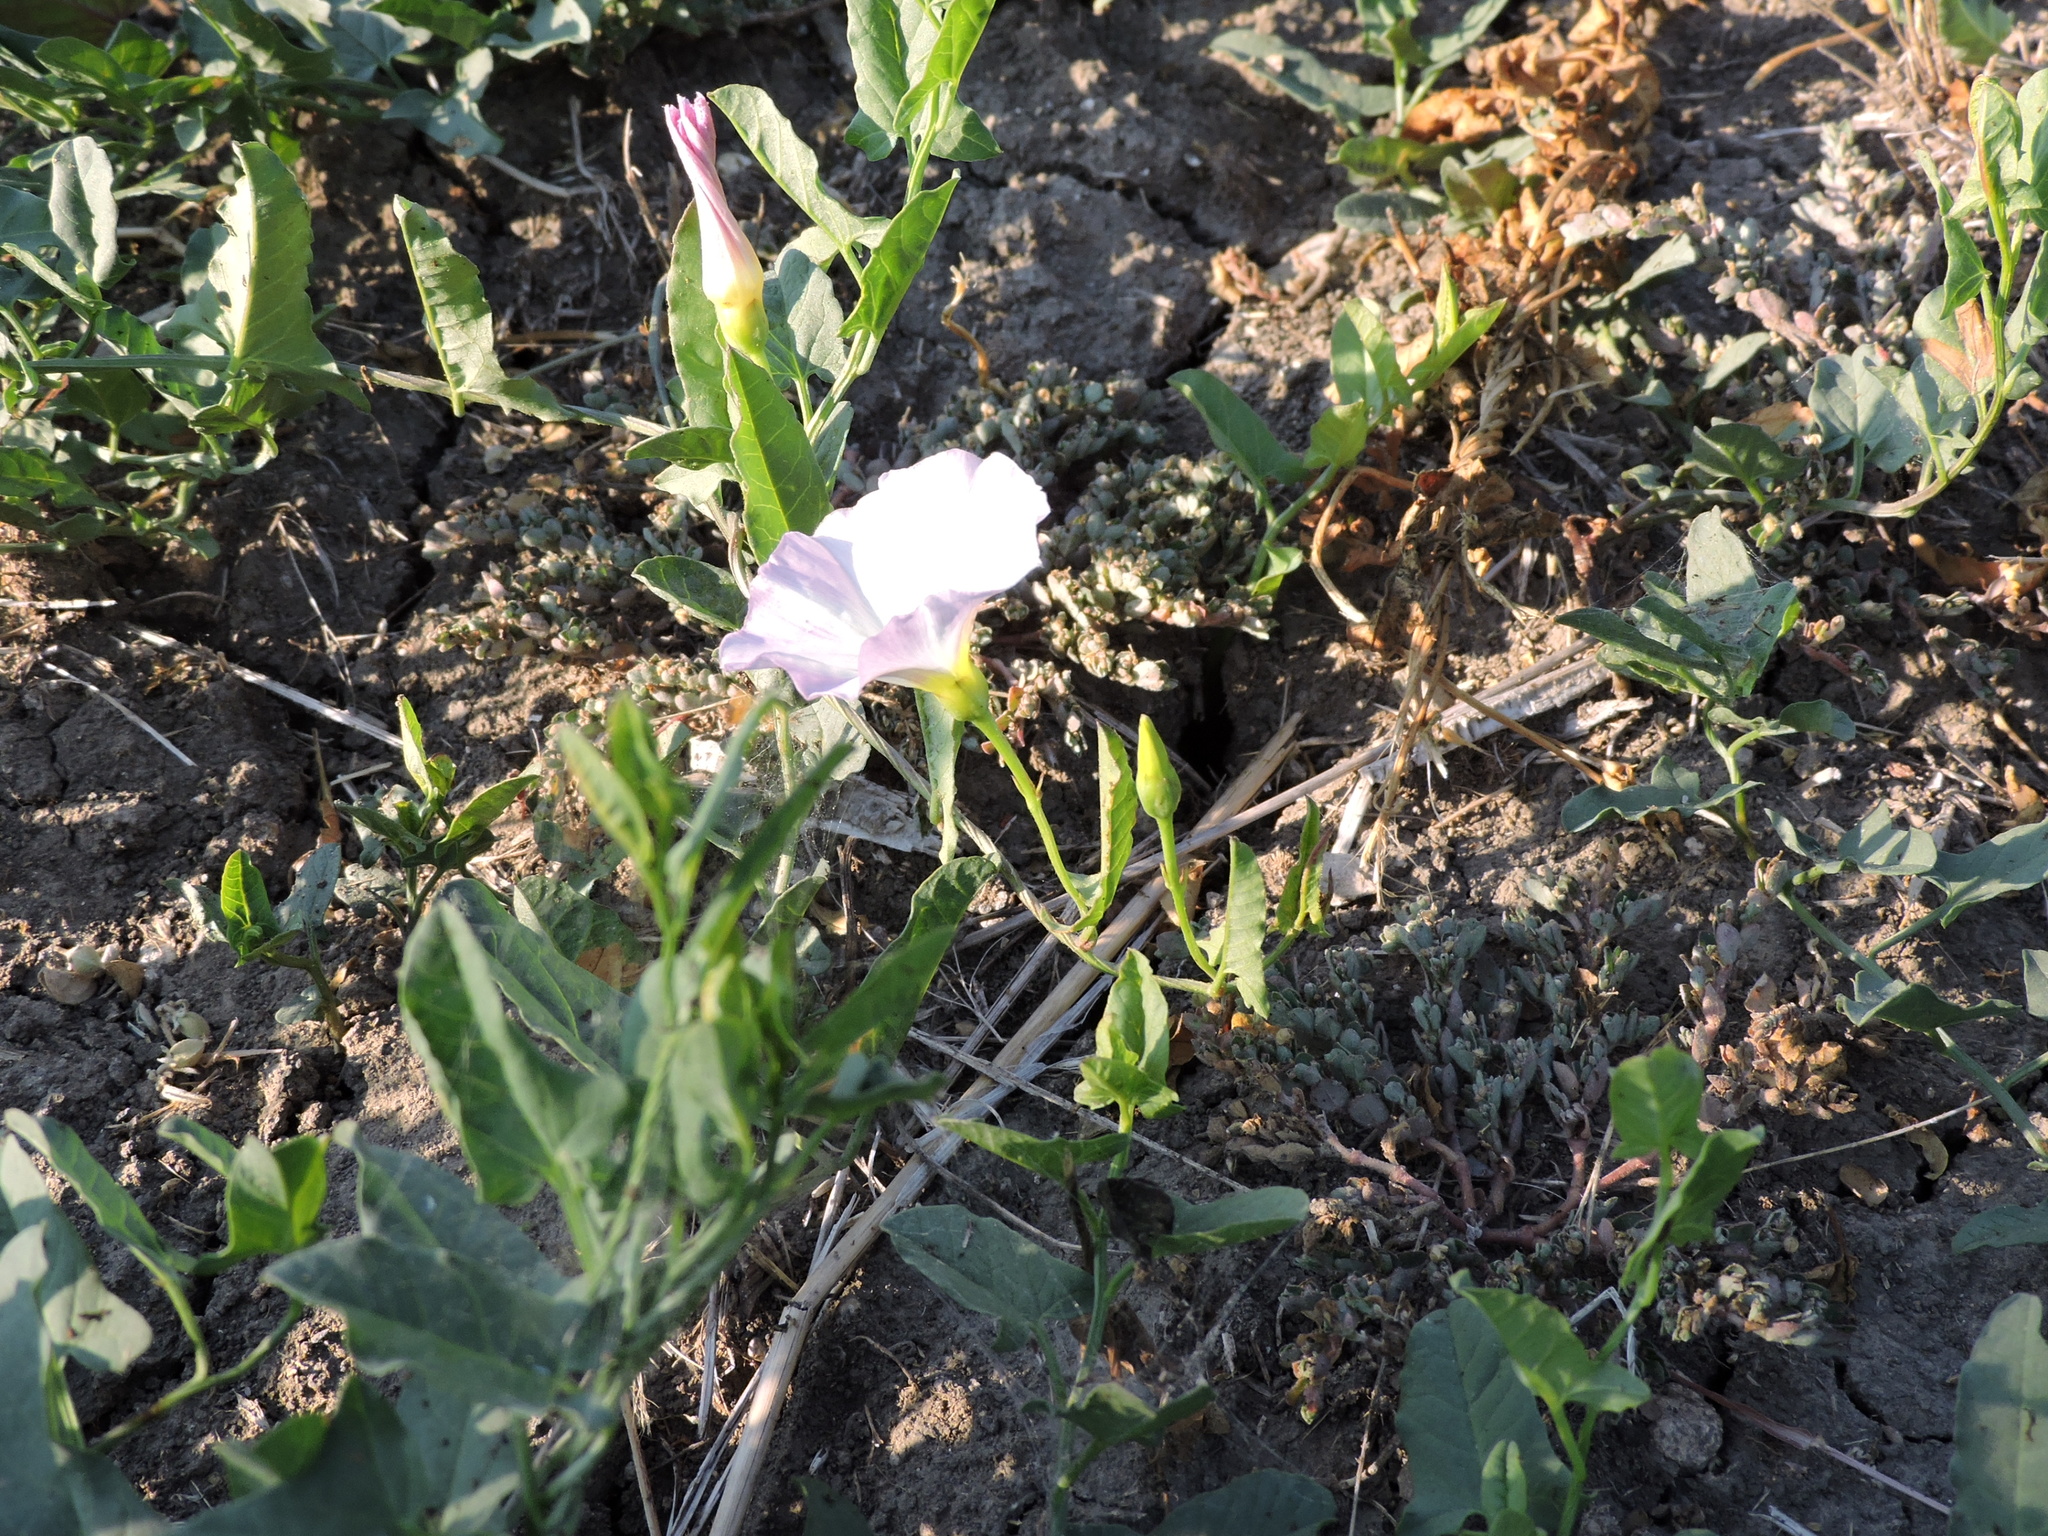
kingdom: Plantae
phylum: Tracheophyta
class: Magnoliopsida
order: Solanales
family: Convolvulaceae
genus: Convolvulus
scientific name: Convolvulus arvensis
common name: Field bindweed
